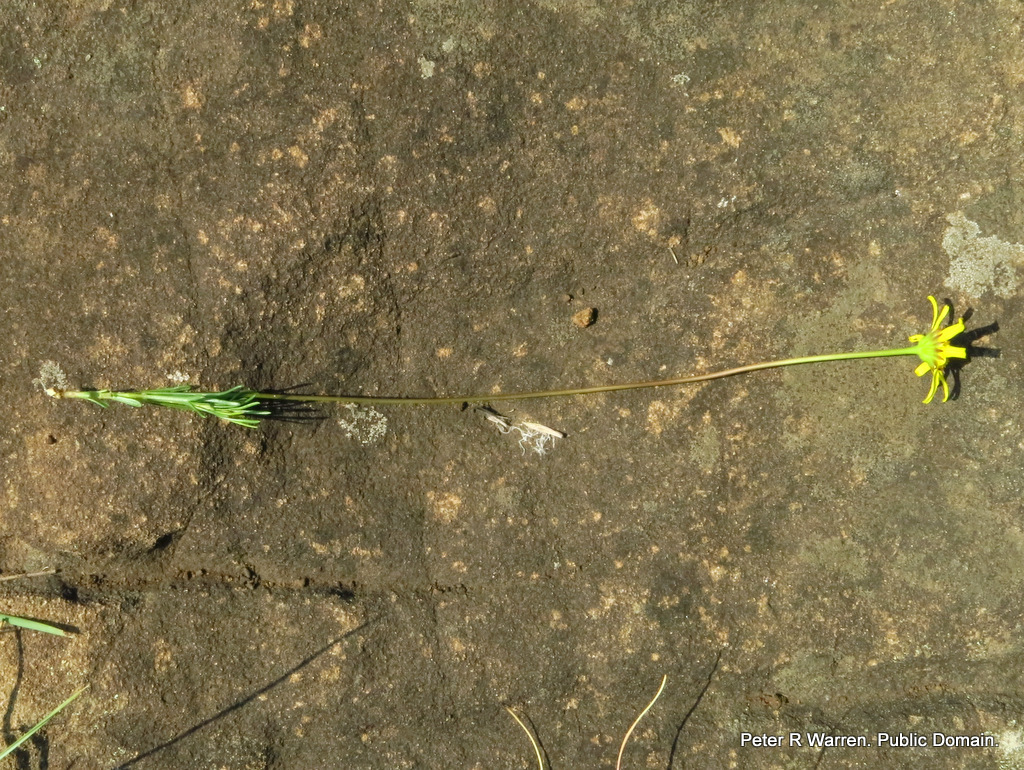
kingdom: Plantae
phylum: Tracheophyta
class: Magnoliopsida
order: Asterales
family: Asteraceae
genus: Euryops
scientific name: Euryops laxus
